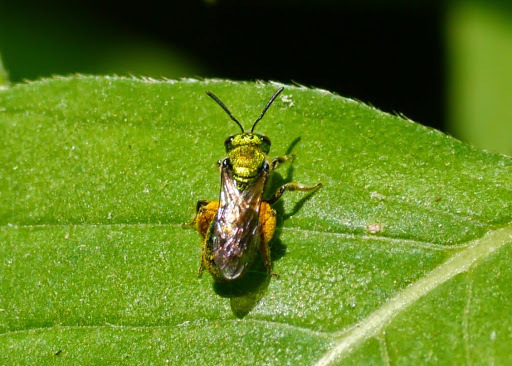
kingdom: Animalia
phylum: Arthropoda
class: Insecta
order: Hymenoptera
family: Halictidae
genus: Augochlora
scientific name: Augochlora pura
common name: Pure green sweat bee
